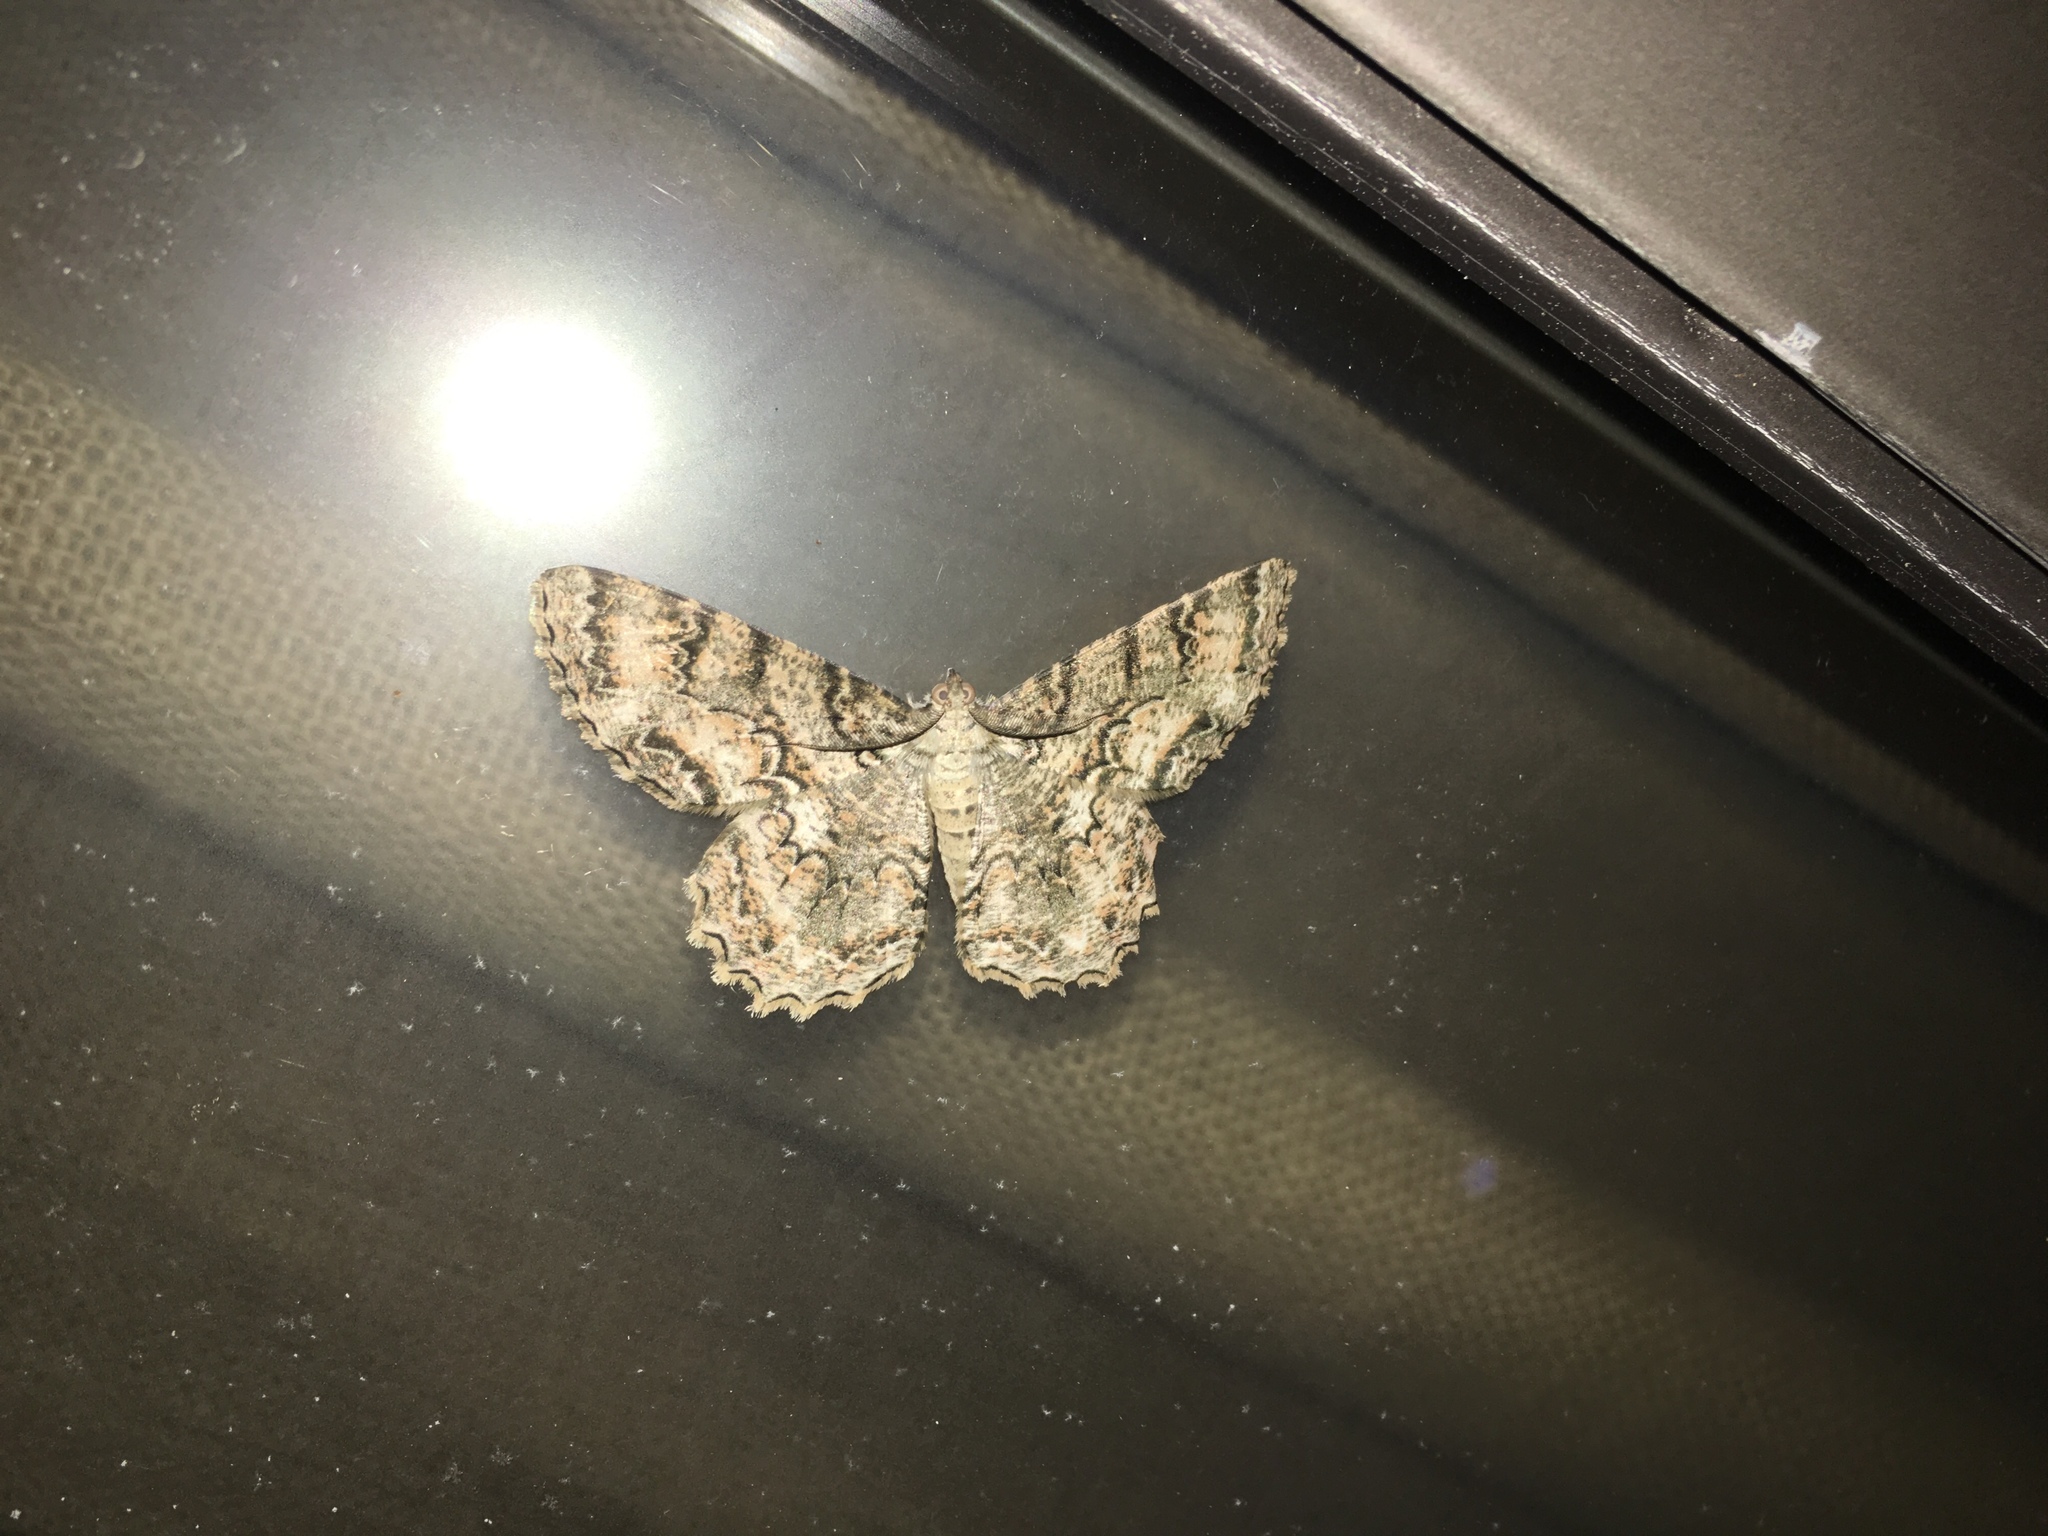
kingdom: Animalia
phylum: Arthropoda
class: Insecta
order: Lepidoptera
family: Geometridae
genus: Epimecis
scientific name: Epimecis hortaria
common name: Tulip-tree beauty
